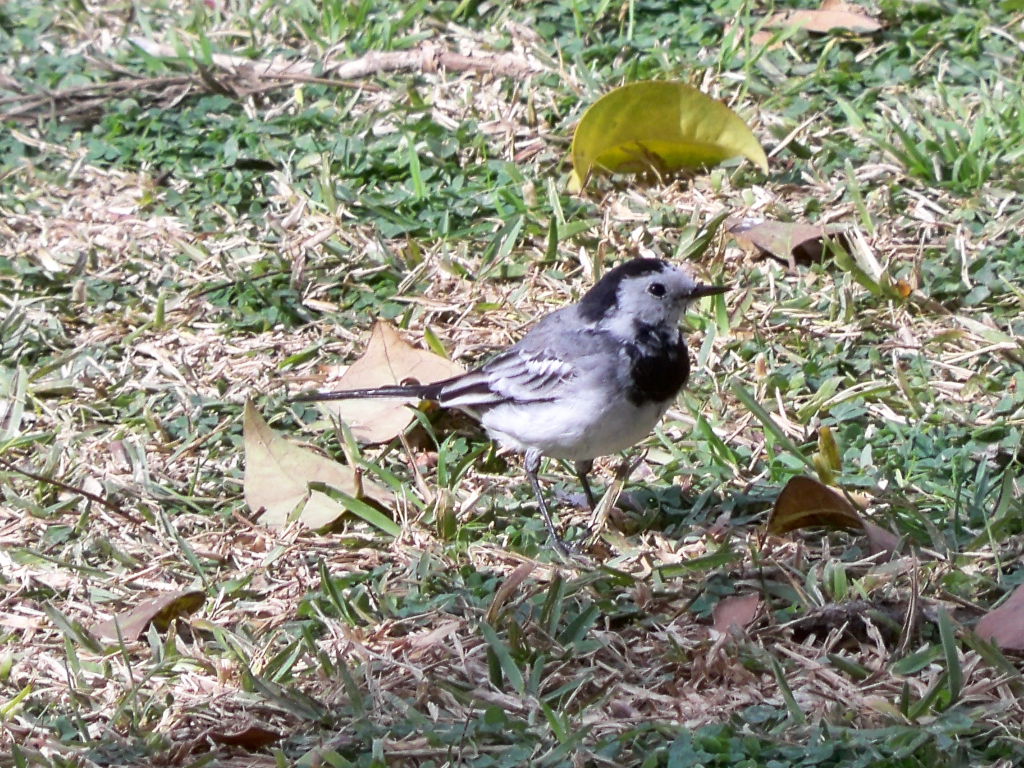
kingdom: Animalia
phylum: Chordata
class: Aves
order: Passeriformes
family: Motacillidae
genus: Motacilla
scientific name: Motacilla alba
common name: White wagtail
